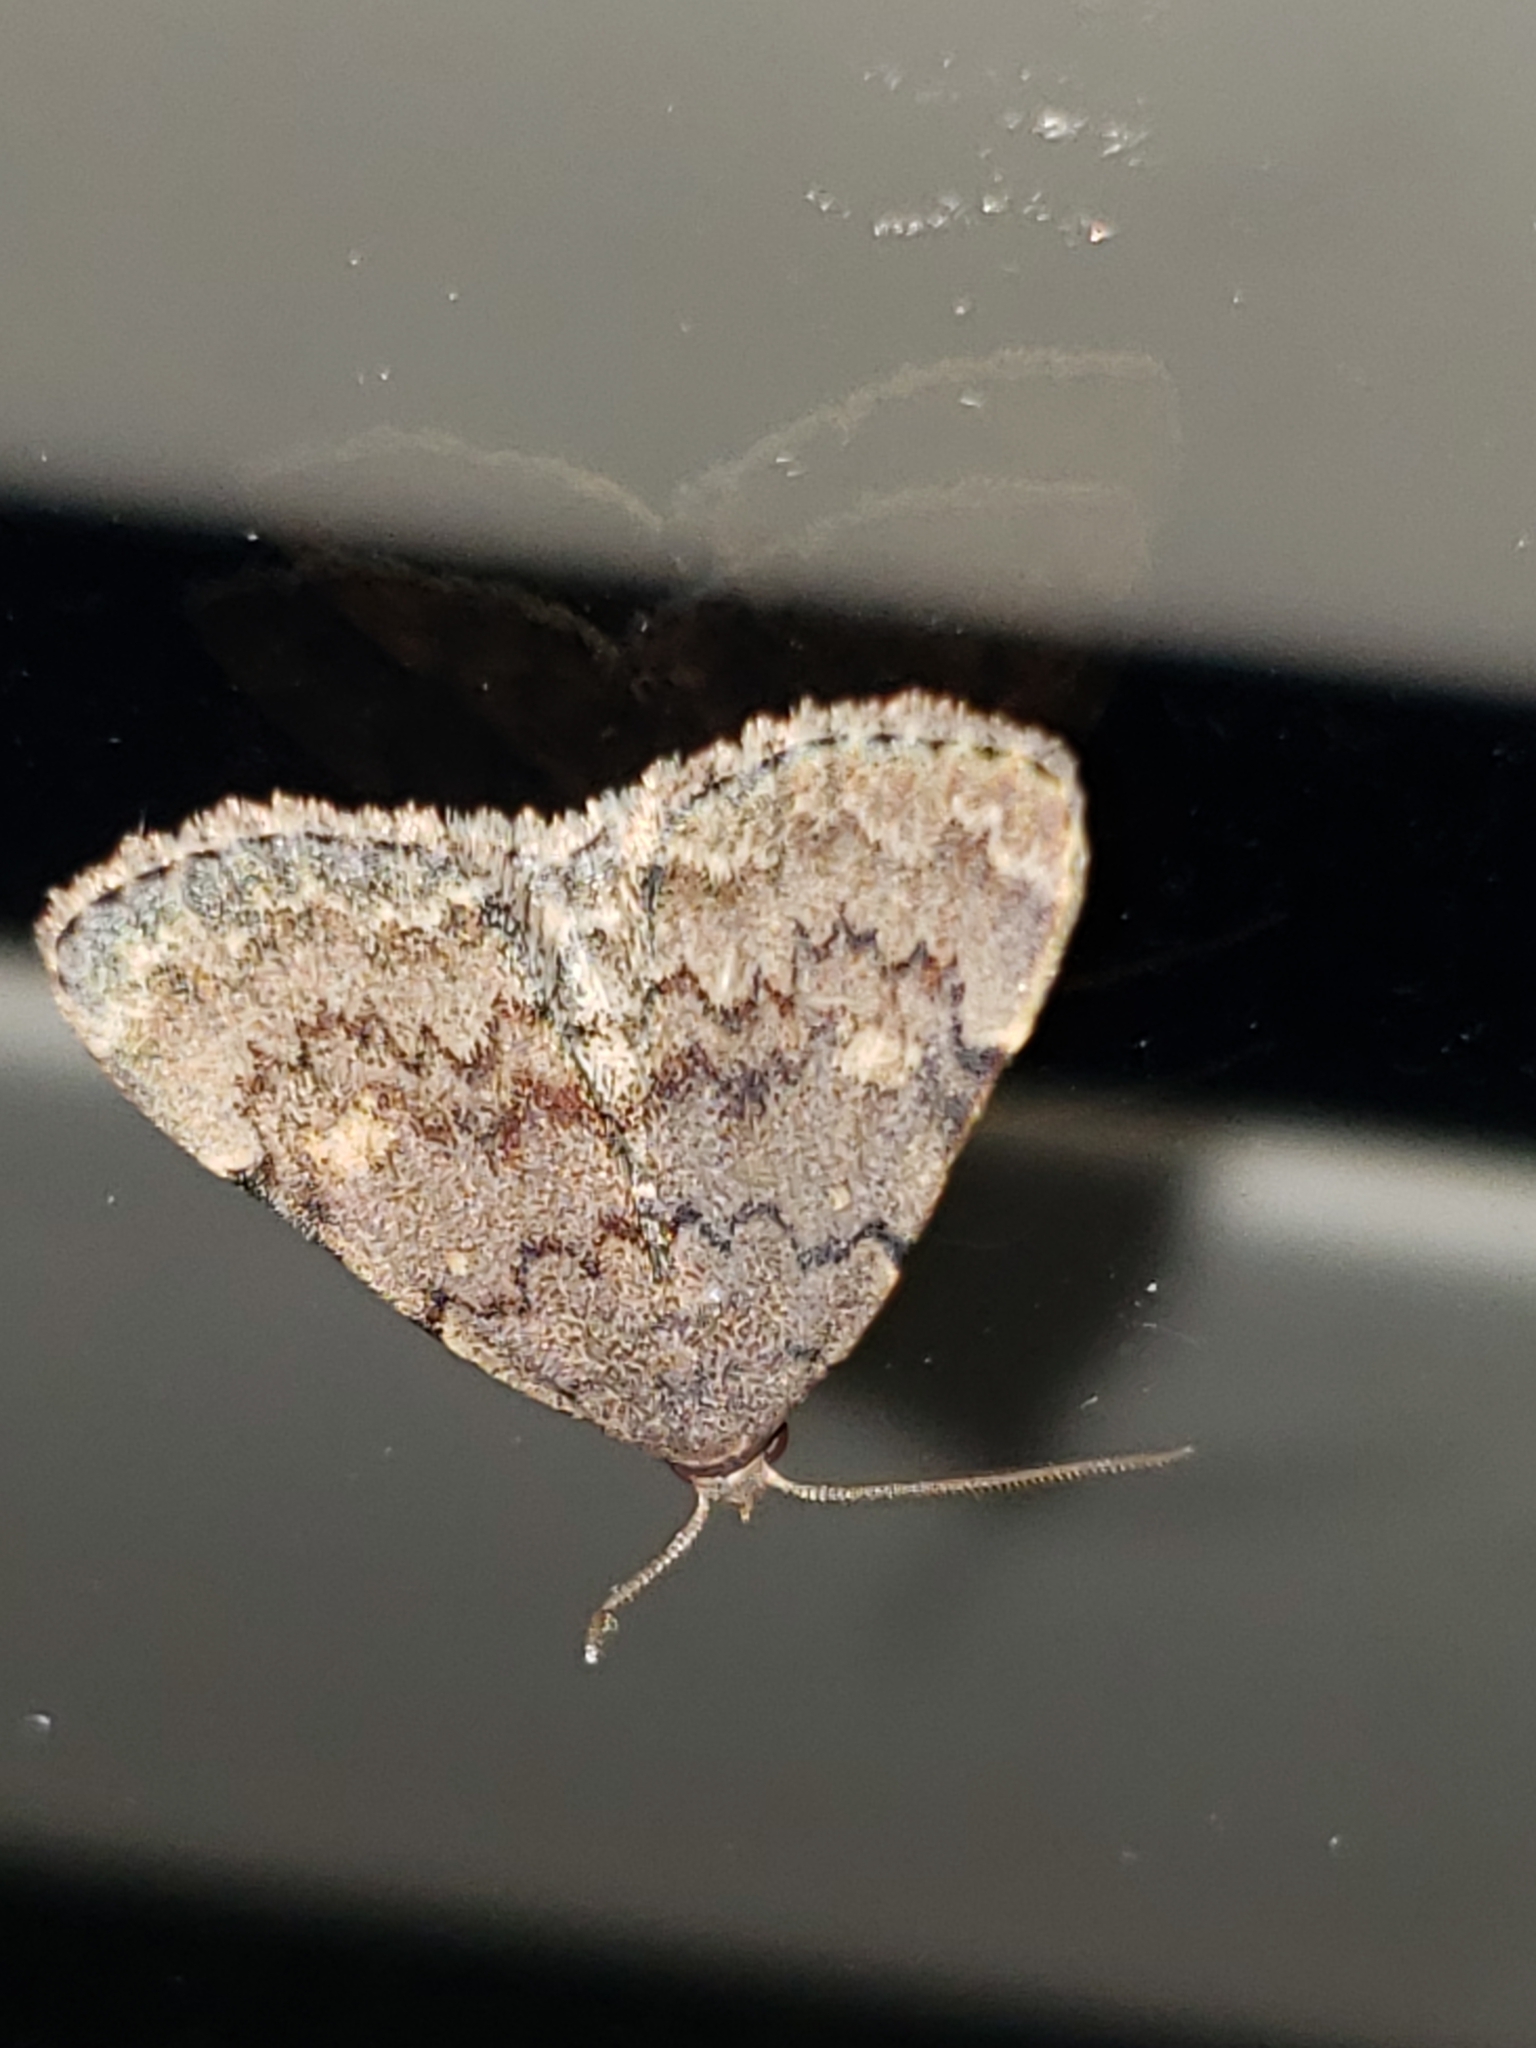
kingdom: Animalia
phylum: Arthropoda
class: Insecta
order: Lepidoptera
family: Erebidae
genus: Idia
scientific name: Idia aemula
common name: Common idia moth
